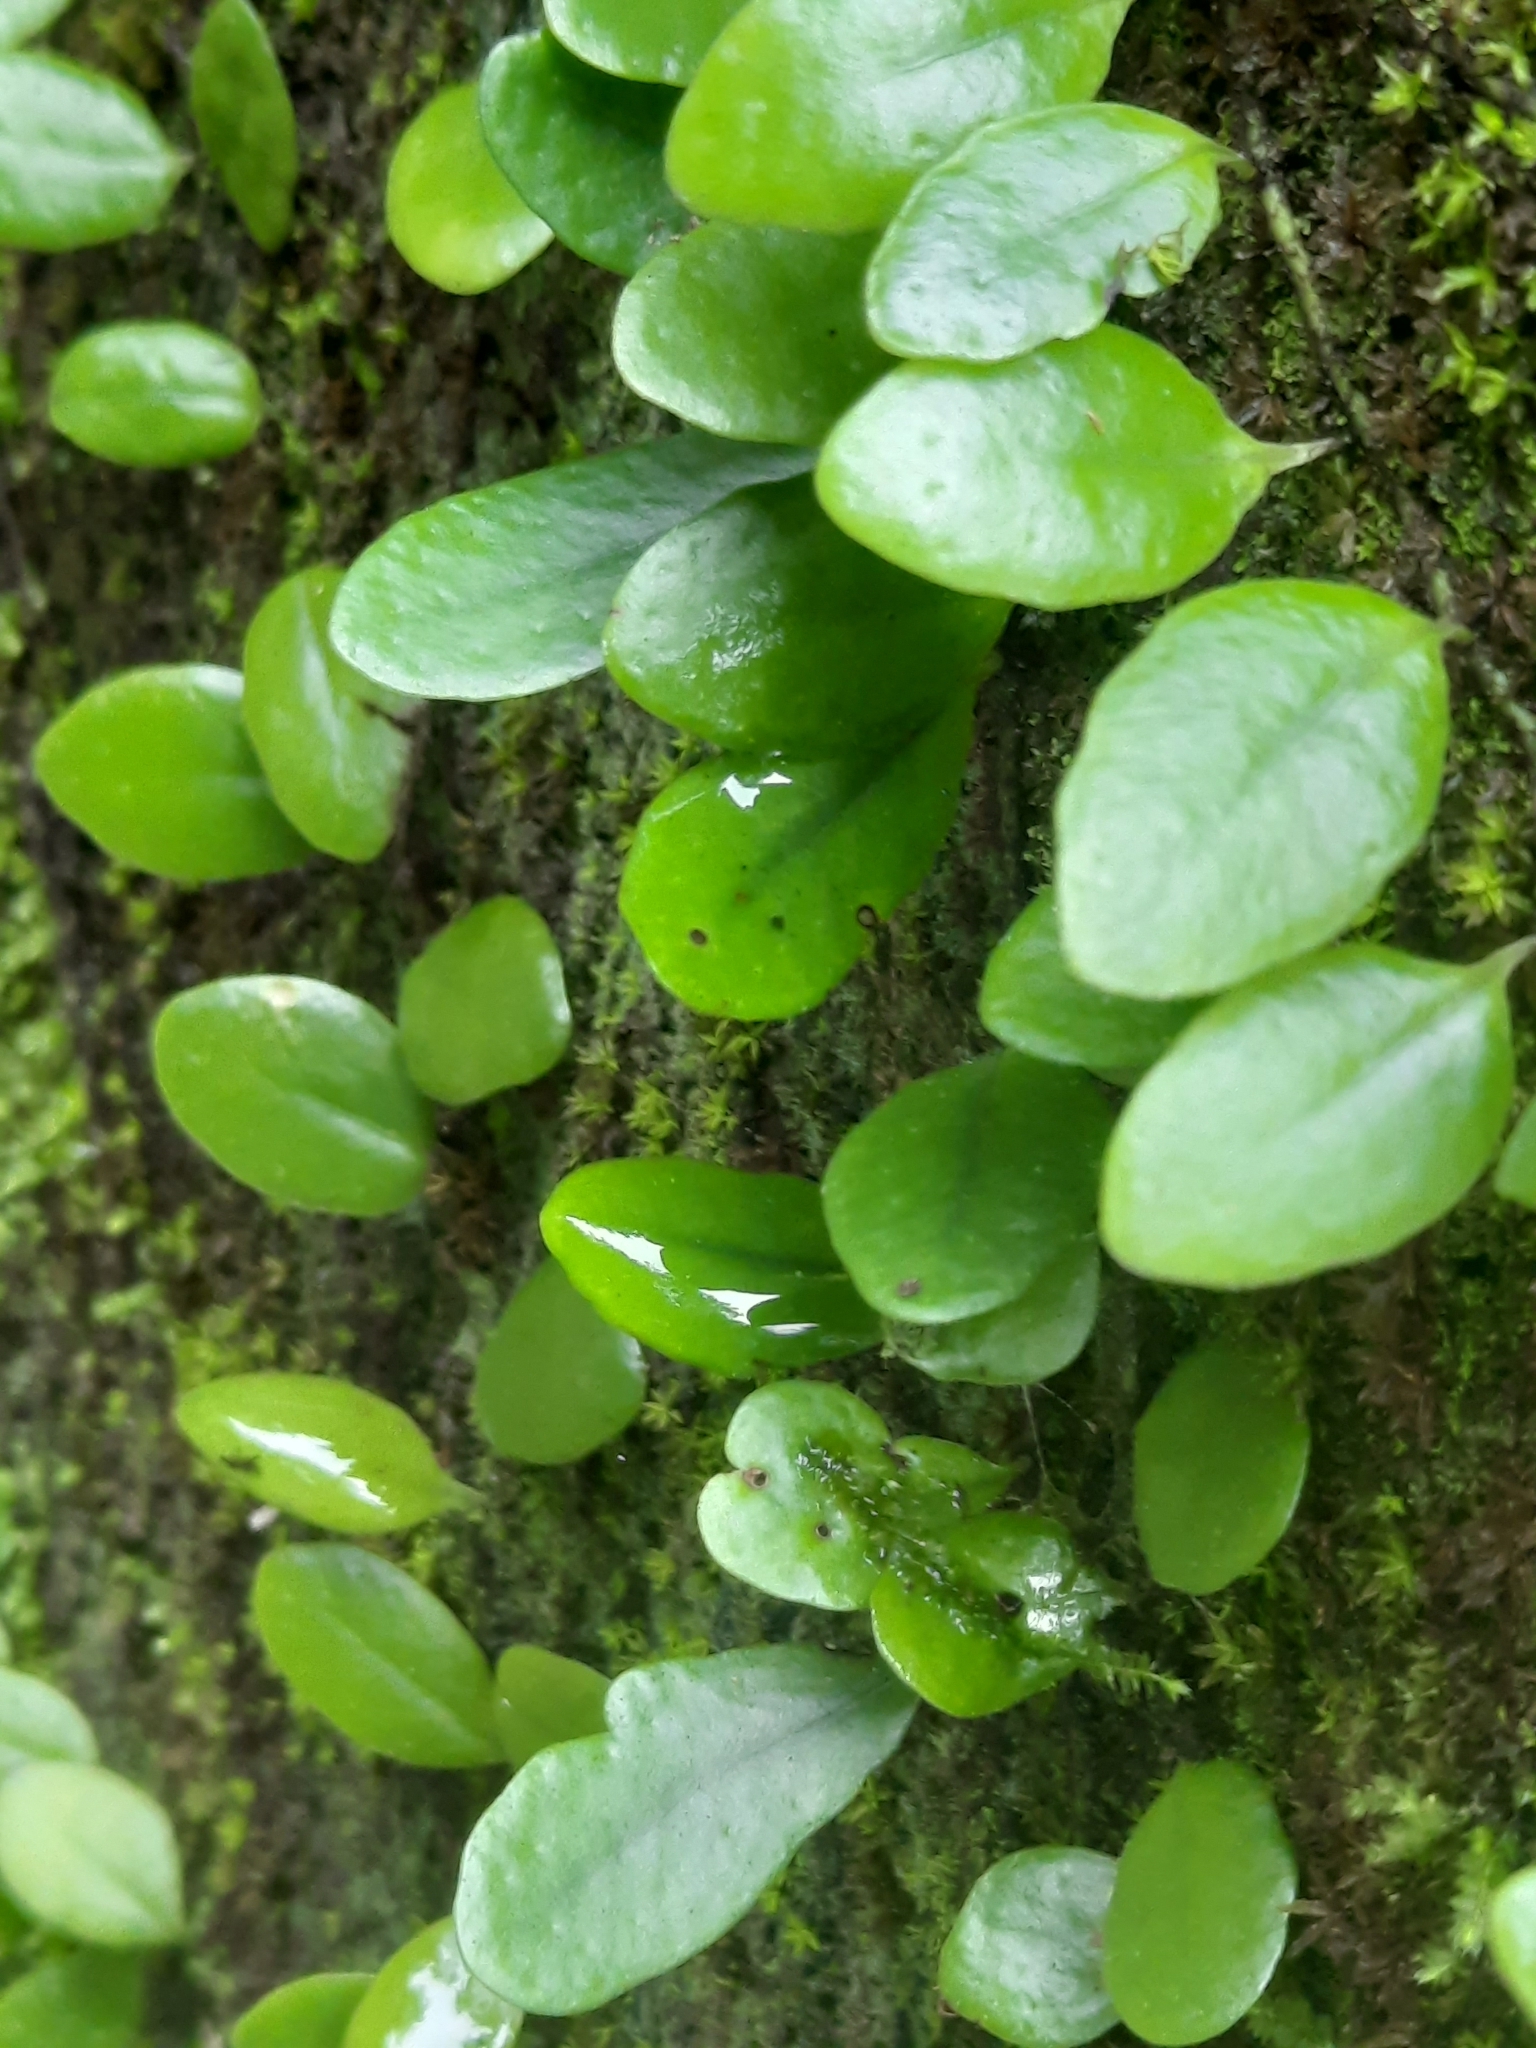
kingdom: Plantae
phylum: Tracheophyta
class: Polypodiopsida
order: Polypodiales
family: Polypodiaceae
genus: Lepisorus
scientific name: Lepisorus microphyllus
